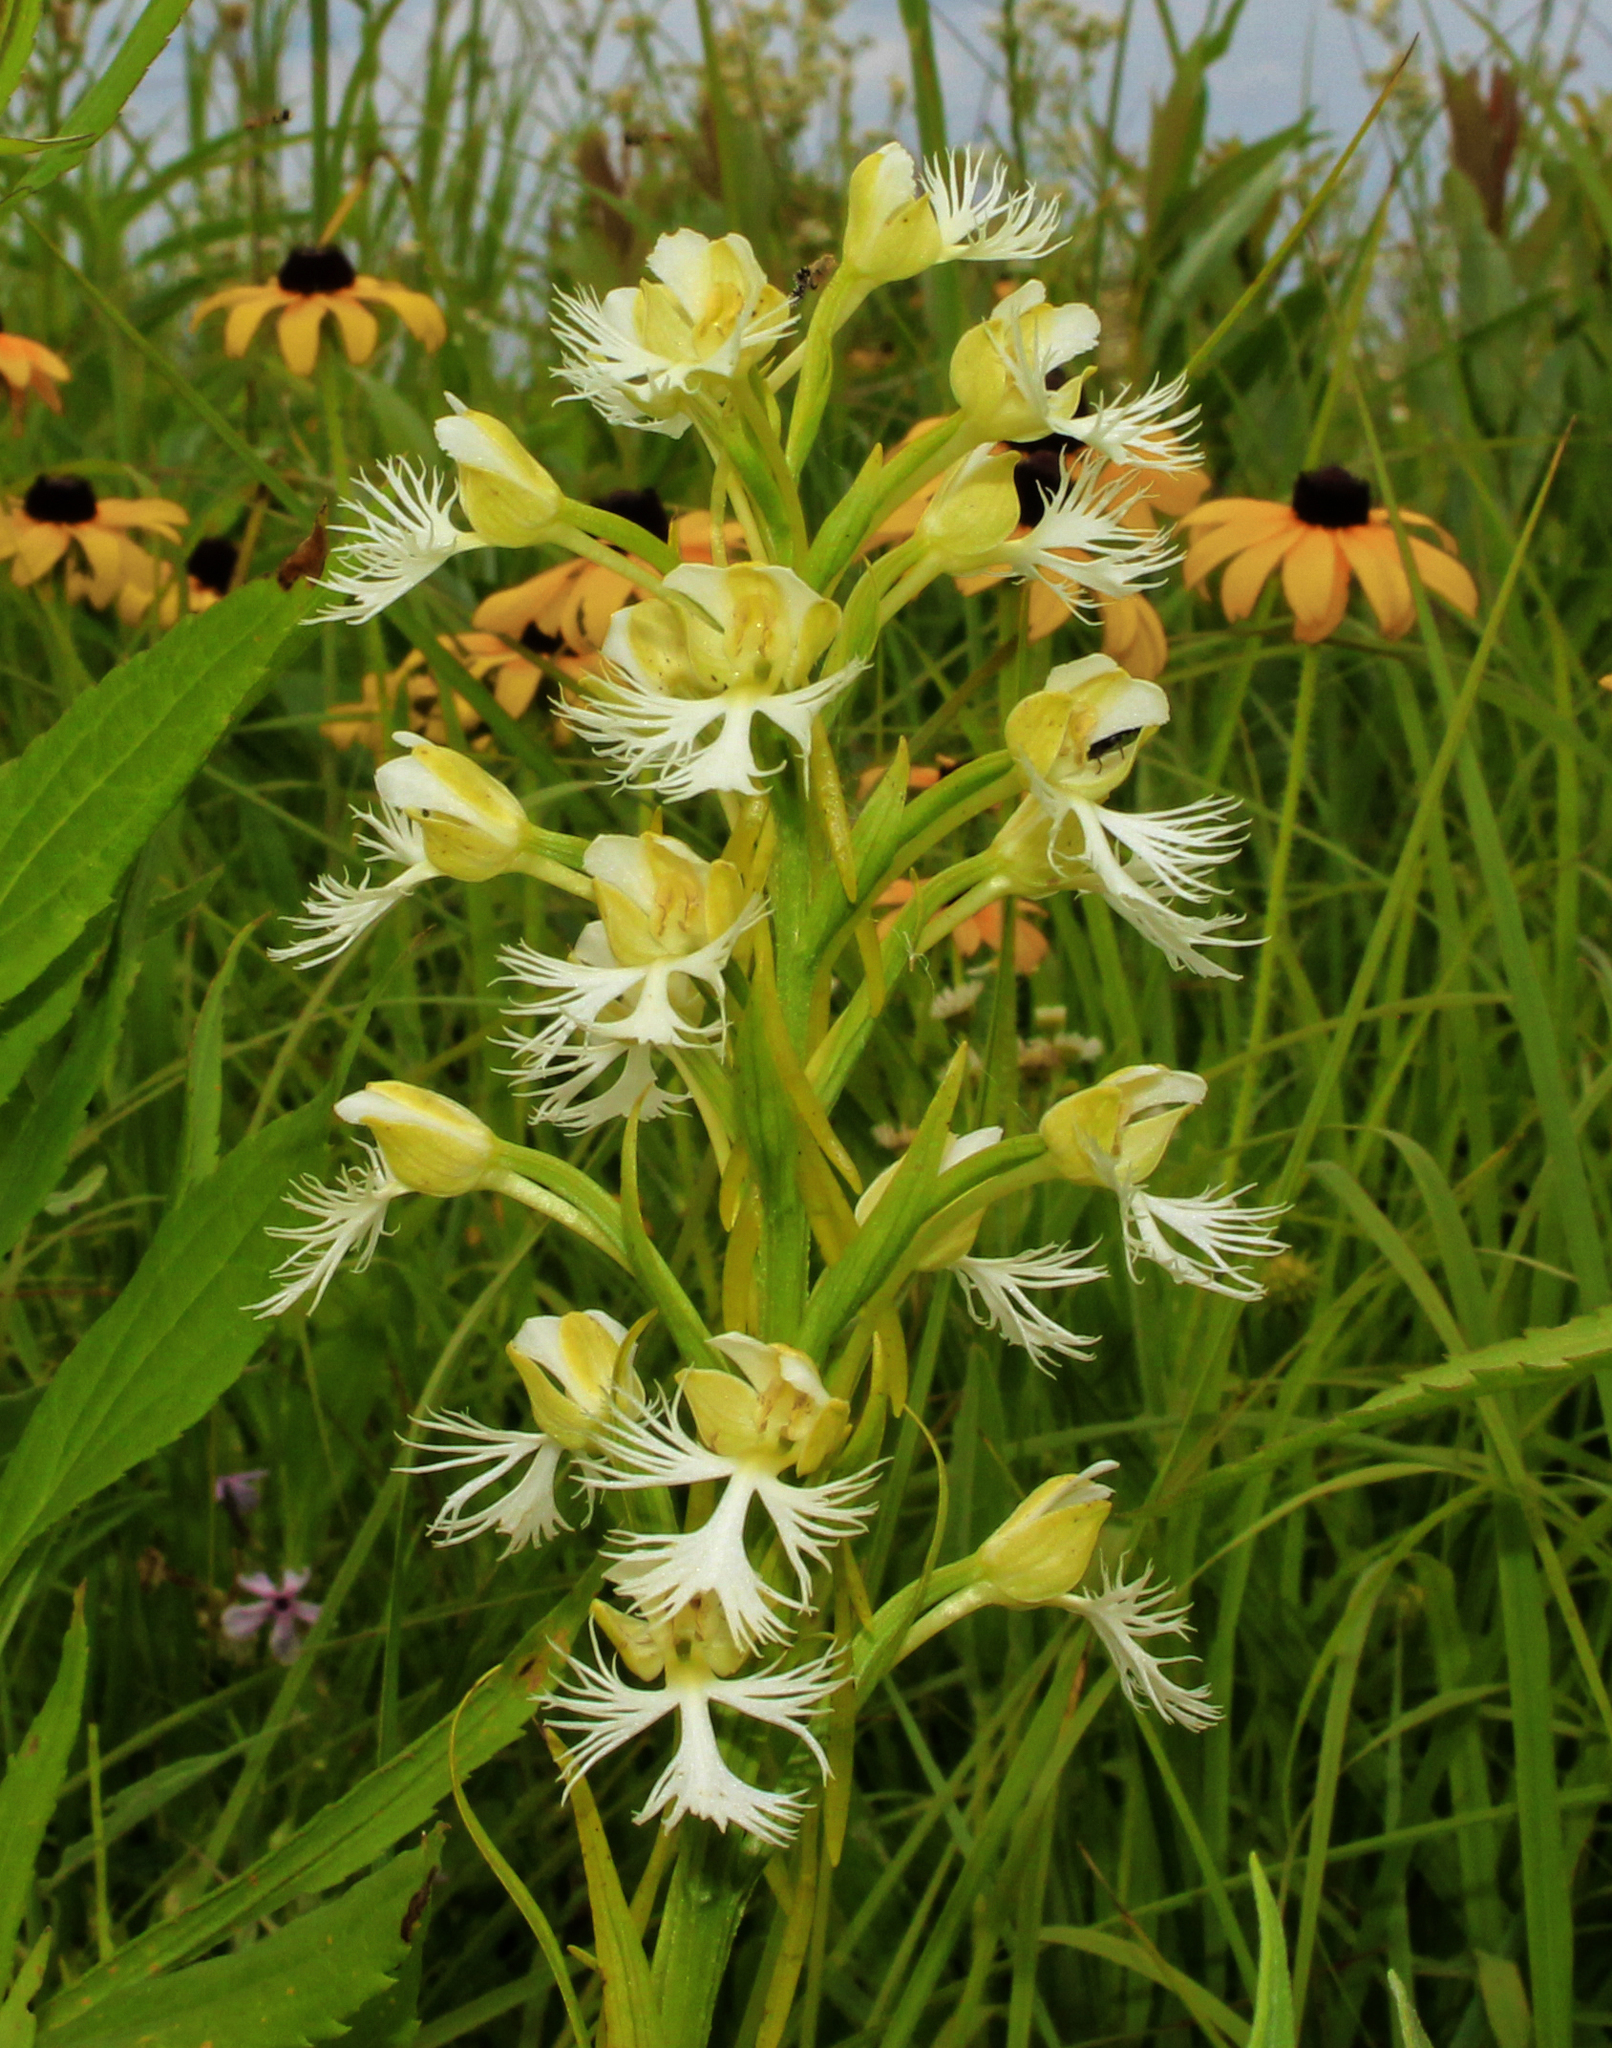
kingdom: Plantae
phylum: Tracheophyta
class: Liliopsida
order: Asparagales
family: Orchidaceae
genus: Platanthera
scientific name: Platanthera leucophaea
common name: Eastern prairie white-fringed orchid
